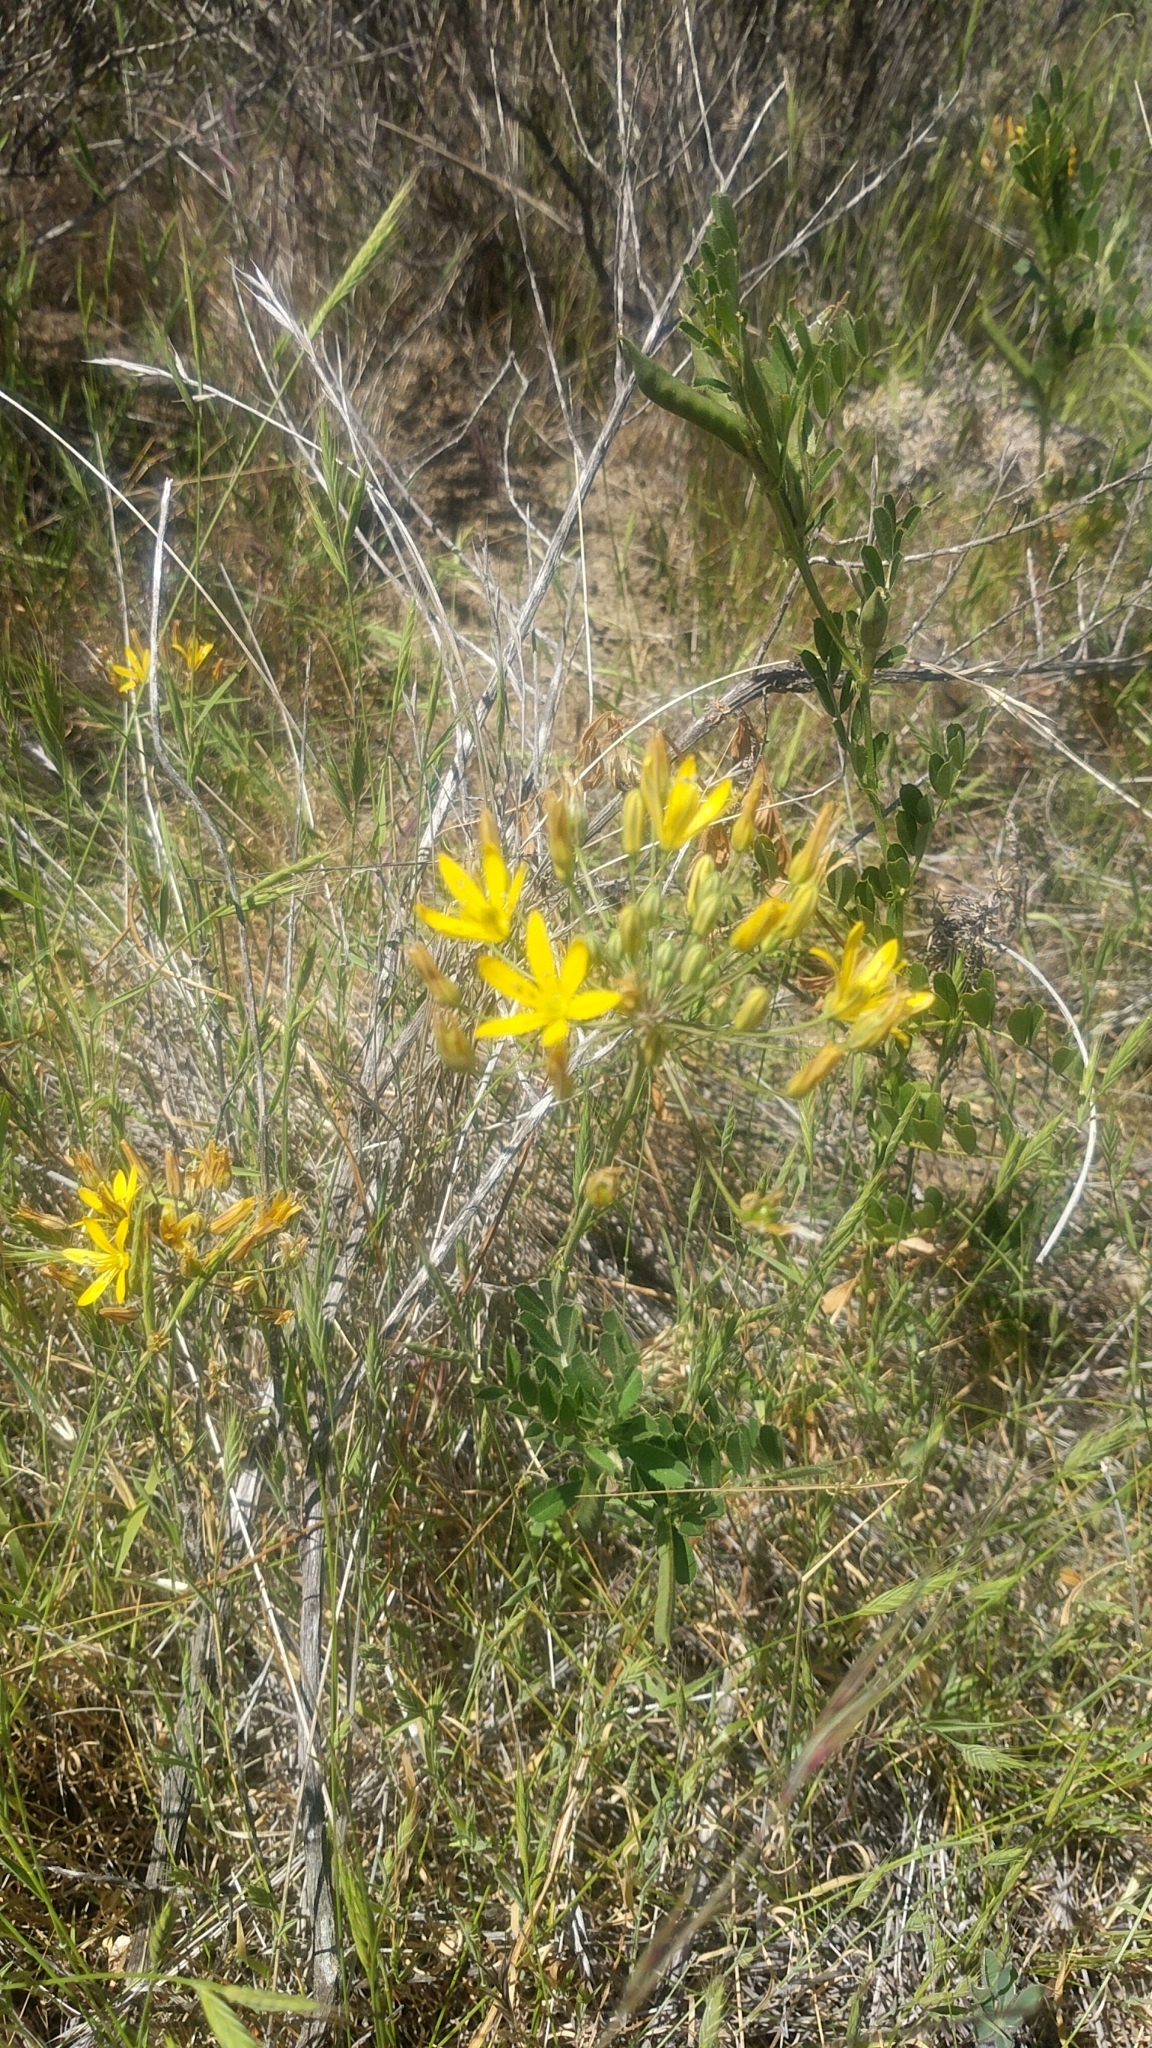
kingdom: Plantae
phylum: Tracheophyta
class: Liliopsida
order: Asparagales
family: Asparagaceae
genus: Bloomeria
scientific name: Bloomeria crocea
